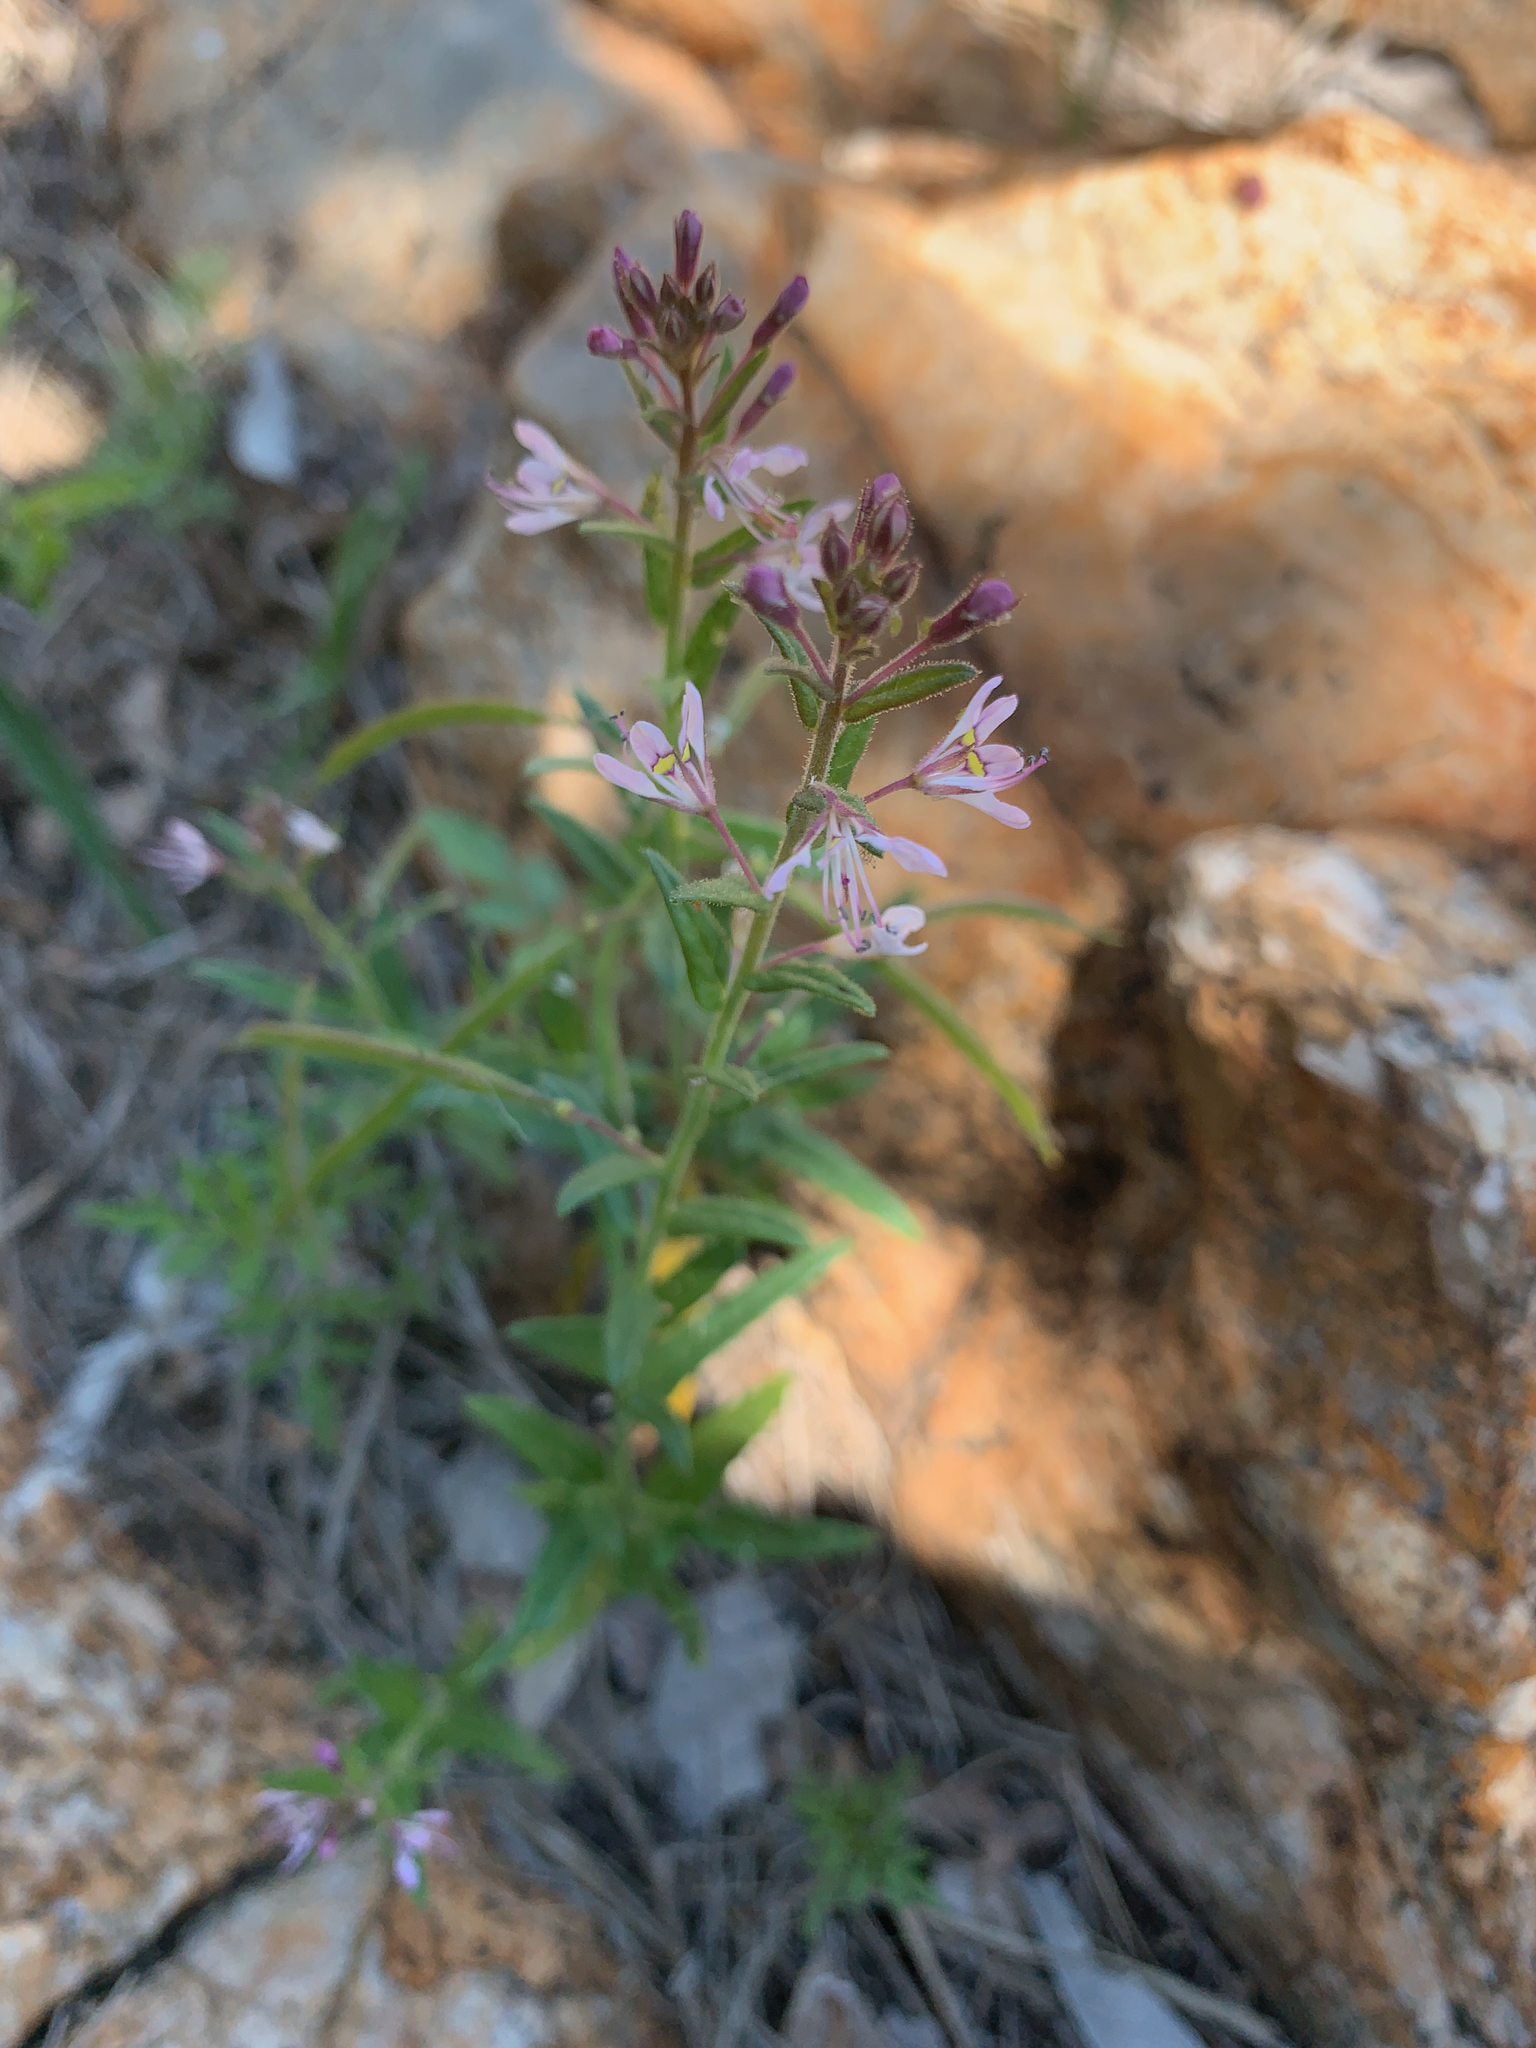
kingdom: Plantae
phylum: Tracheophyta
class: Magnoliopsida
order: Brassicales
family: Cleomaceae
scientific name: Cleomaceae
